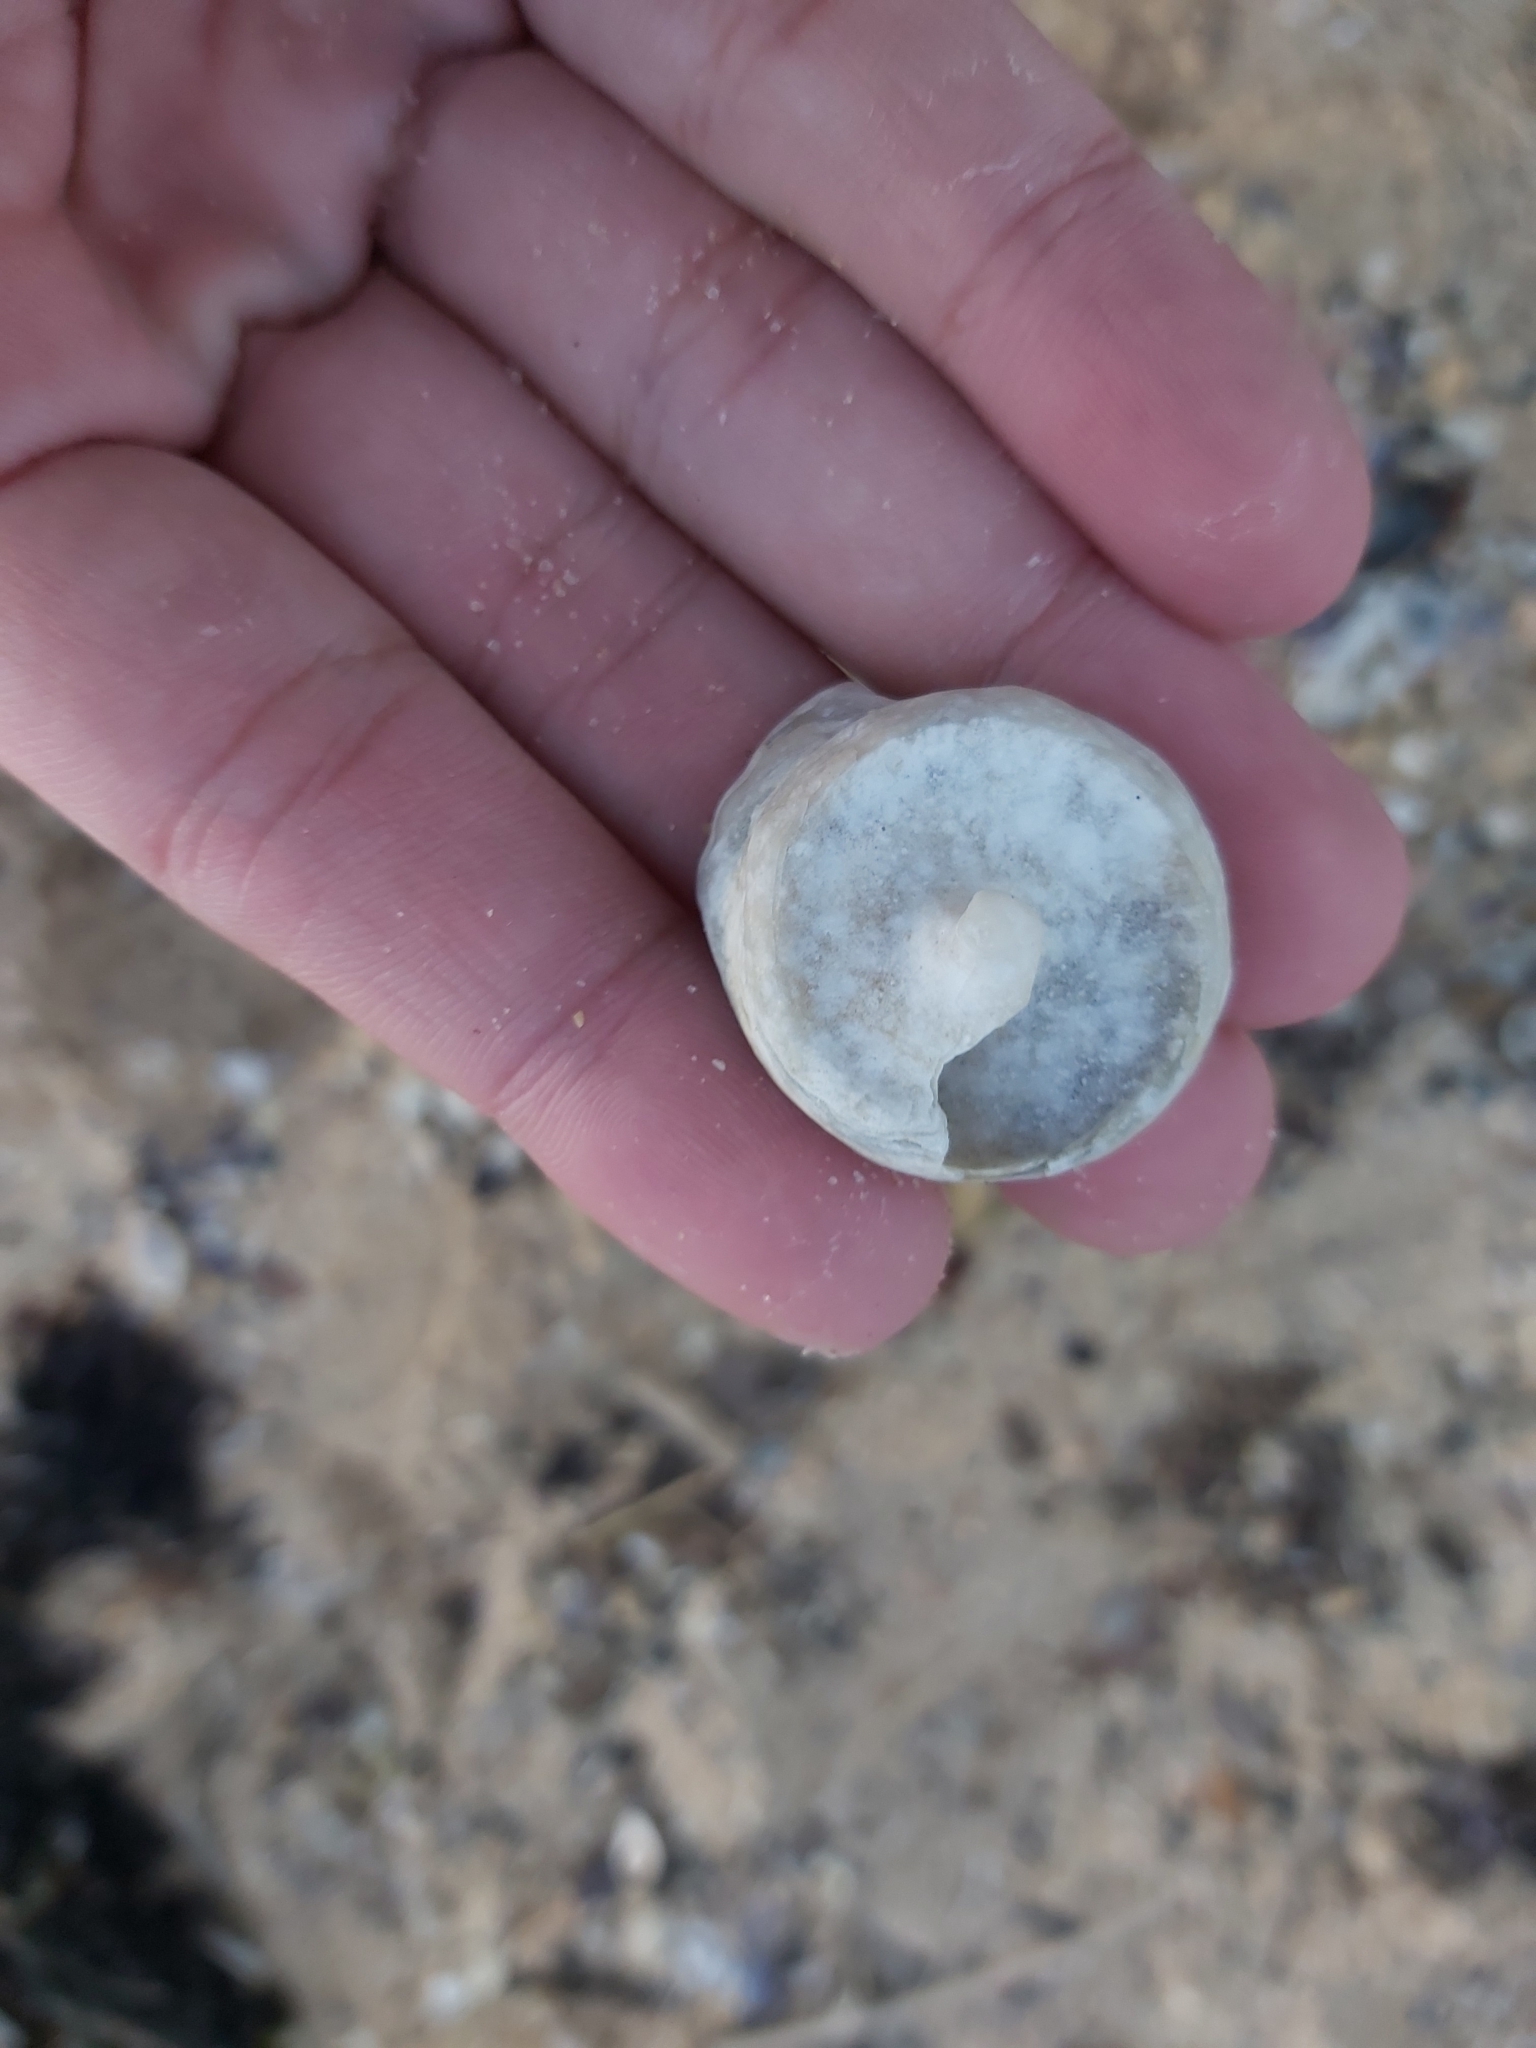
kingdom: Animalia
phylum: Mollusca
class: Gastropoda
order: Trochida
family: Turbinidae
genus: Astralium
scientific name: Astralium tentoriiforme
